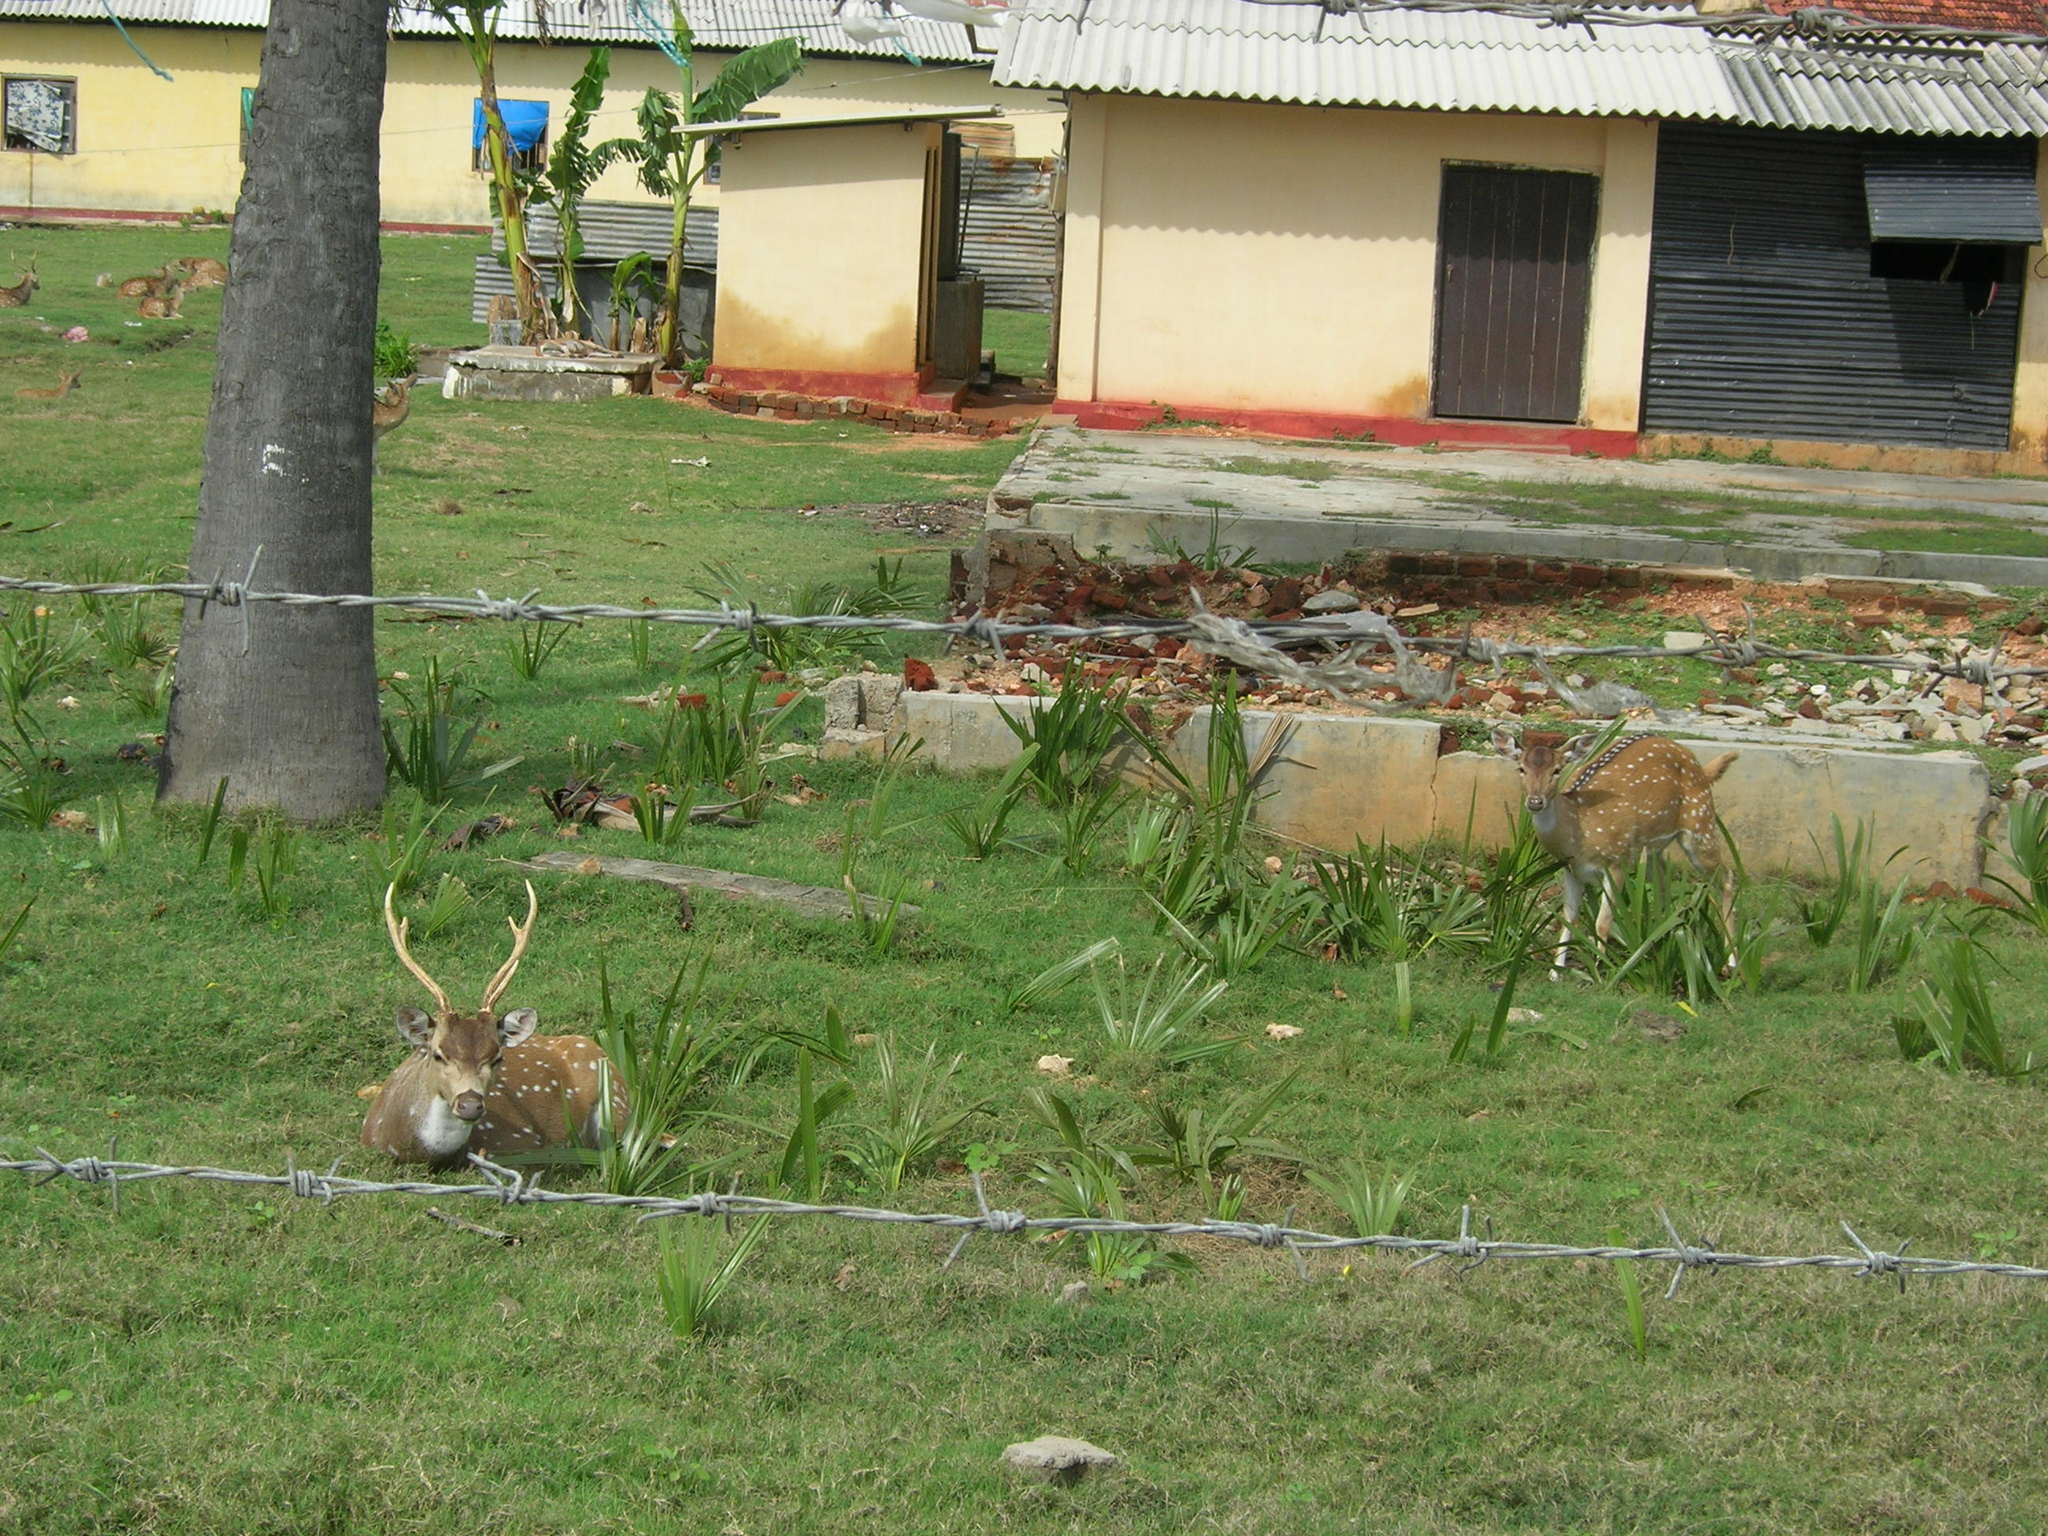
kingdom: Animalia
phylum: Chordata
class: Mammalia
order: Artiodactyla
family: Cervidae
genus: Axis
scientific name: Axis axis
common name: Chital
